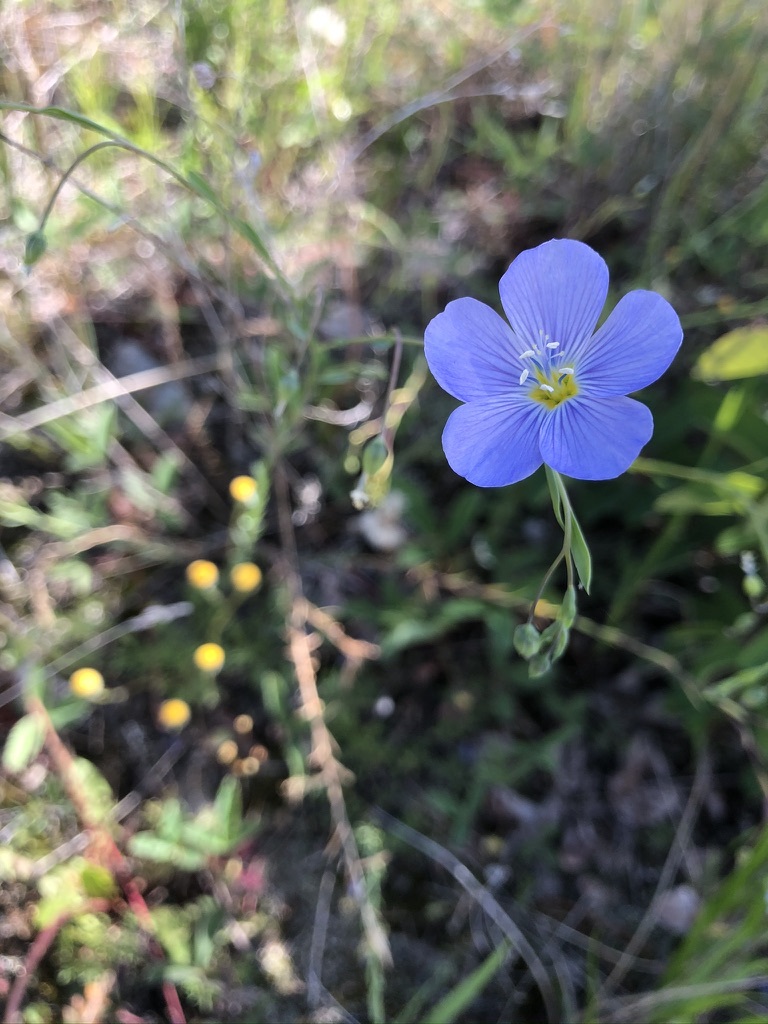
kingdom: Plantae
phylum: Tracheophyta
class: Magnoliopsida
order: Malpighiales
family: Linaceae
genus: Linum
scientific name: Linum lewisii
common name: Prairie flax
